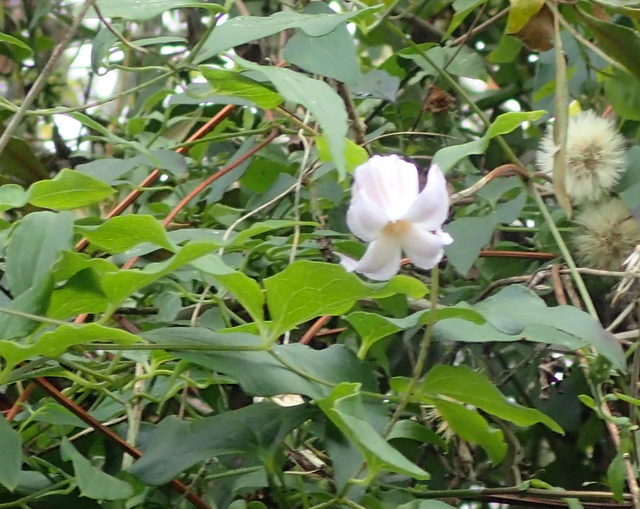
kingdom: Plantae
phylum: Tracheophyta
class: Magnoliopsida
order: Ranunculales
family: Ranunculaceae
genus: Clematis
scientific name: Clematis crispa
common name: Curly clematis
